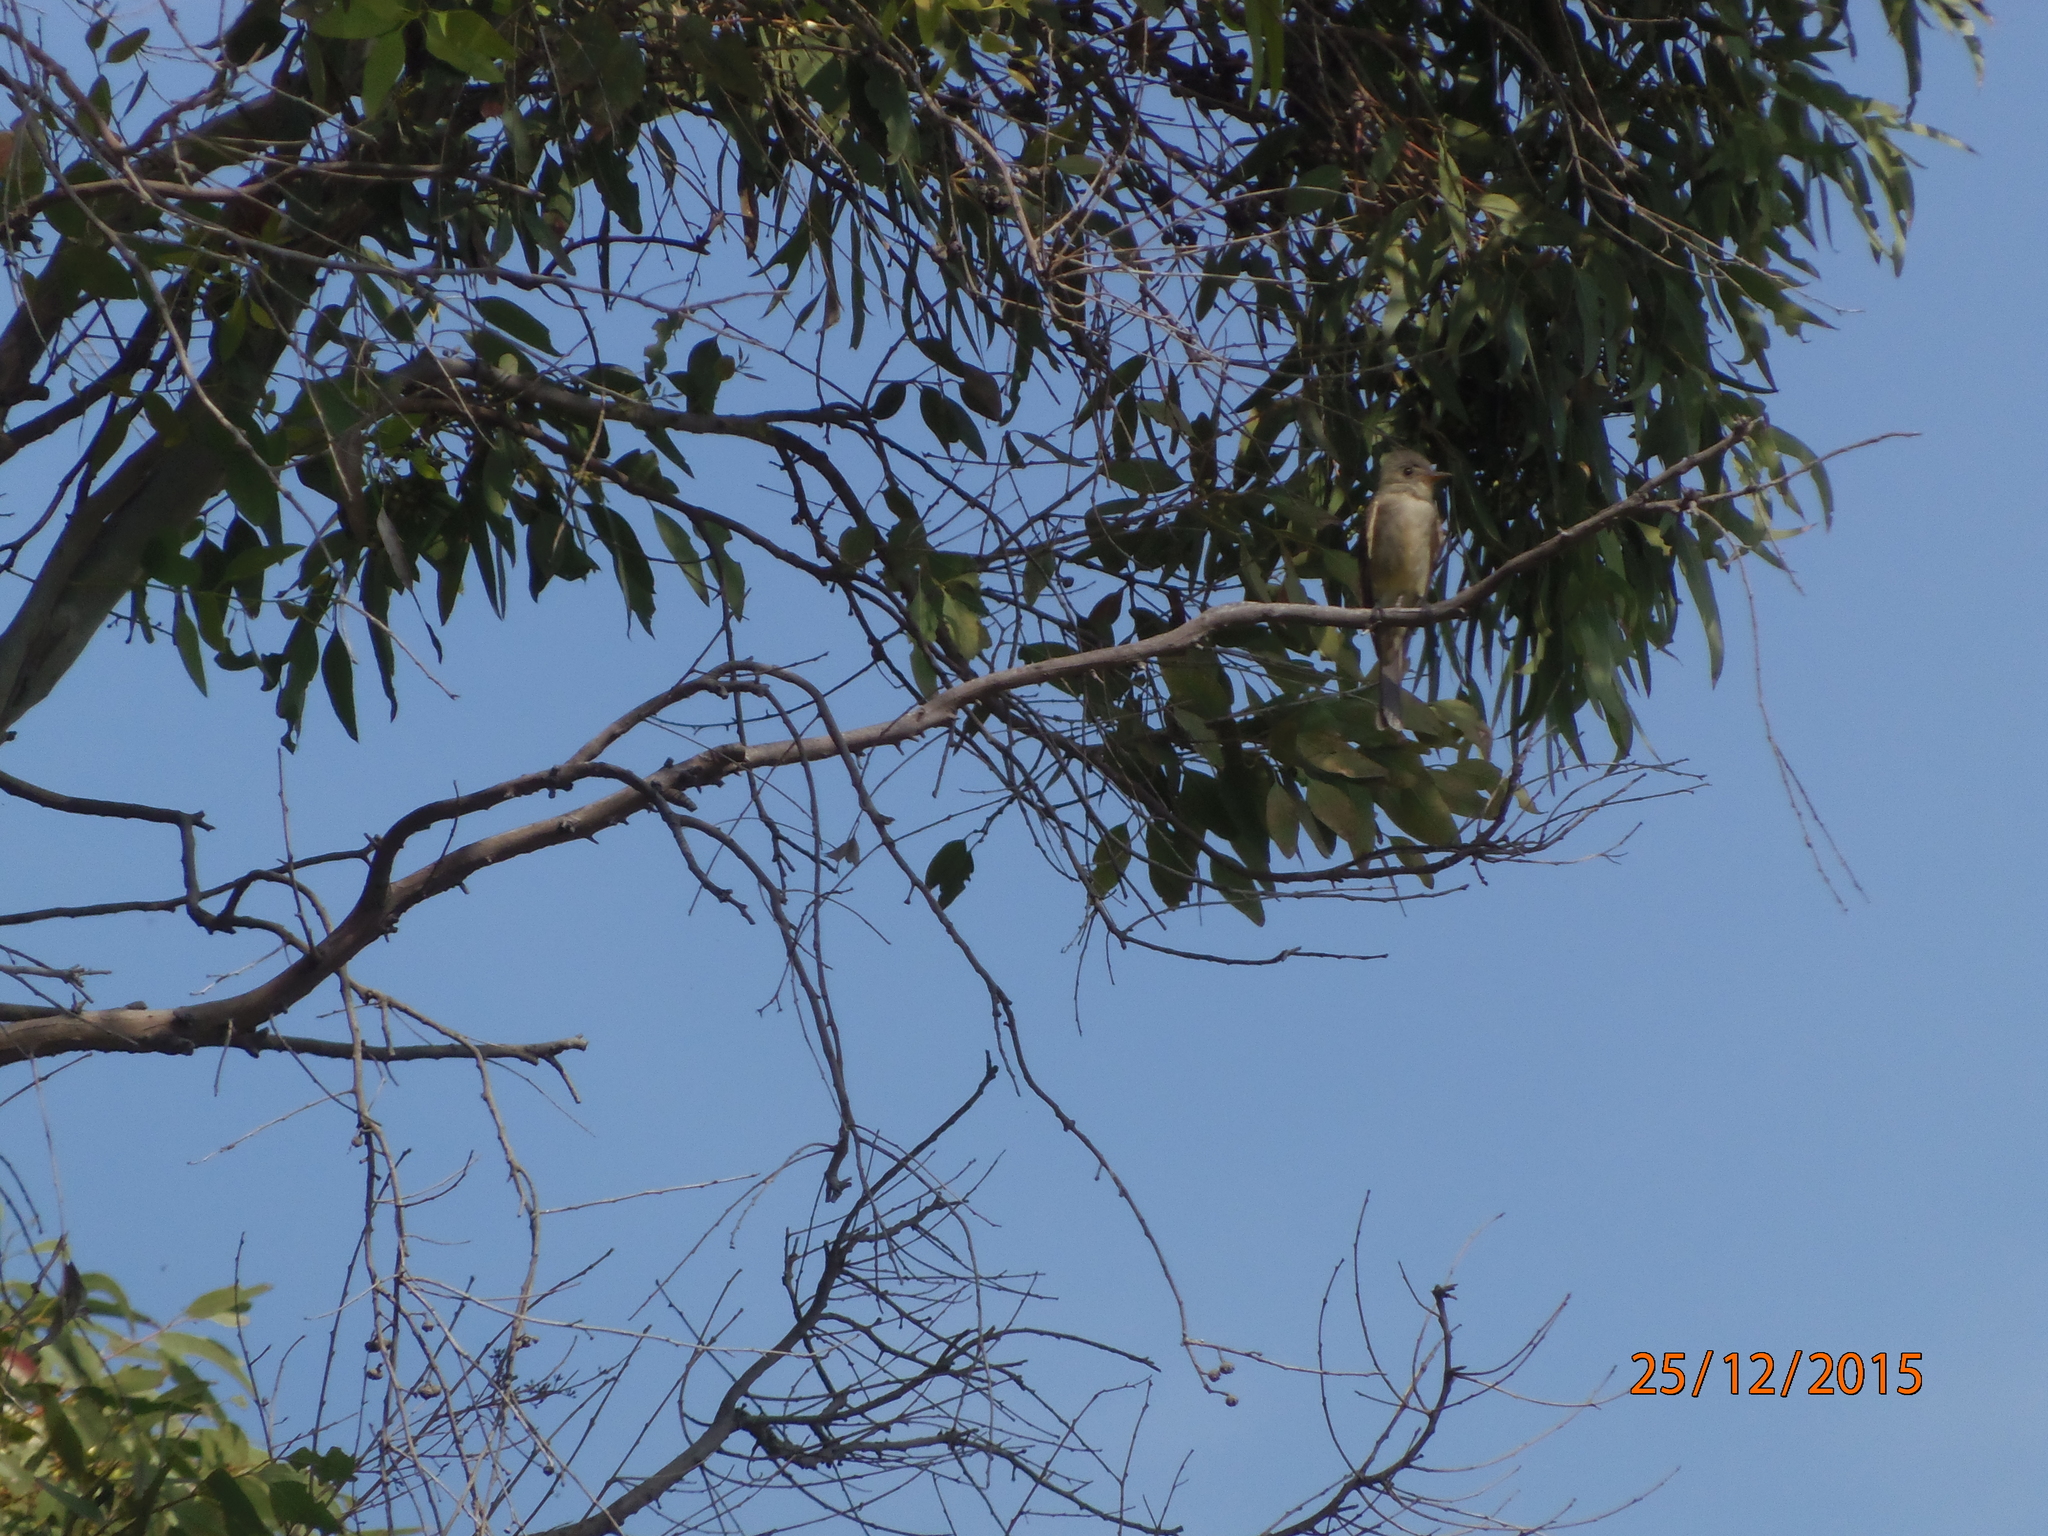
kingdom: Animalia
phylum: Chordata
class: Aves
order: Passeriformes
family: Tyrannidae
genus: Contopus
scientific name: Contopus sordidulus
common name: Western wood-pewee
